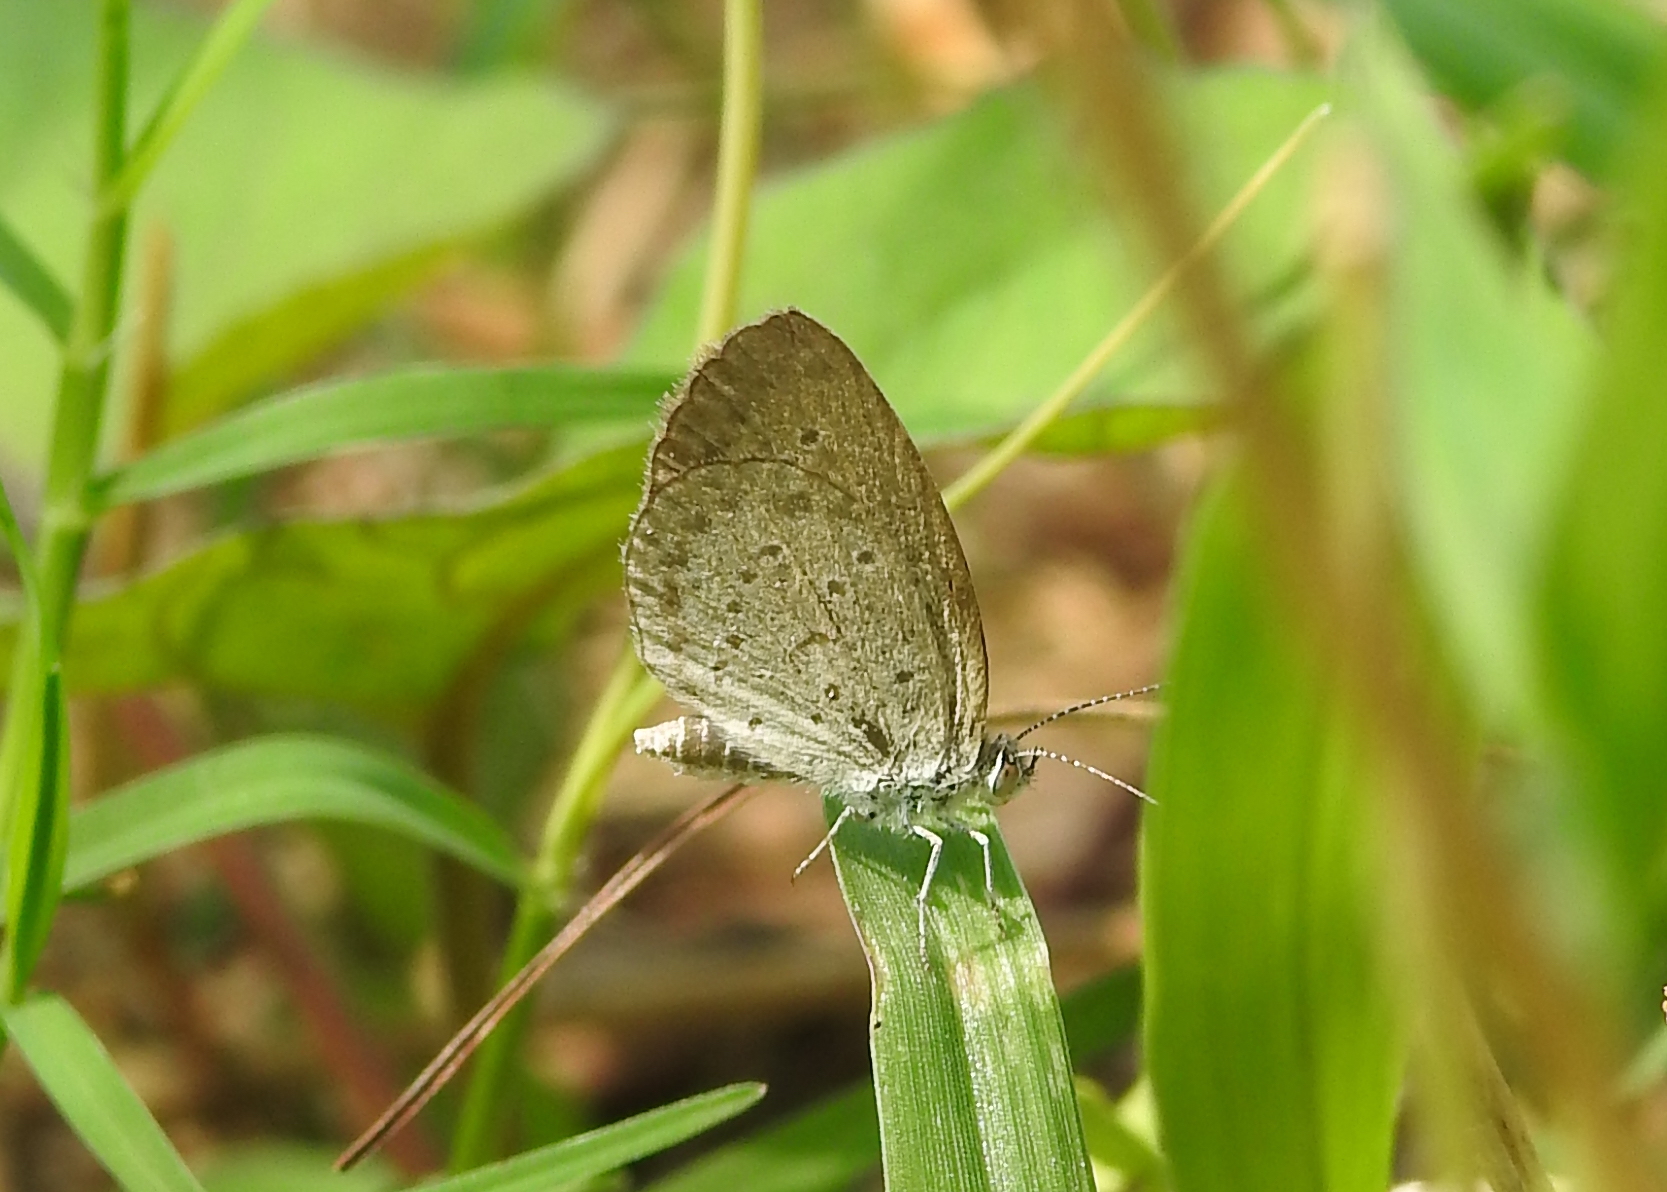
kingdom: Animalia
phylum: Arthropoda
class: Insecta
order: Lepidoptera
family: Lycaenidae
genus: Zizina
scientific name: Zizina otis
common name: Lesser grass blue
